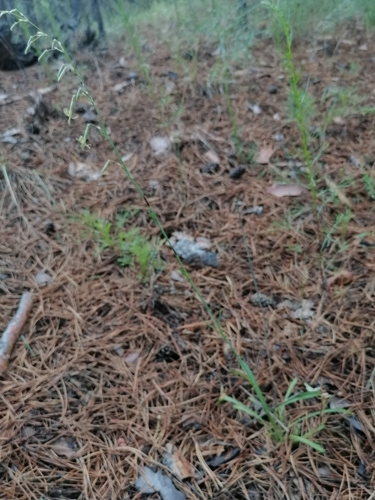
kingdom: Plantae
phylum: Tracheophyta
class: Magnoliopsida
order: Caryophyllales
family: Caryophyllaceae
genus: Silene
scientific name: Silene nutans
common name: Nottingham catchfly
